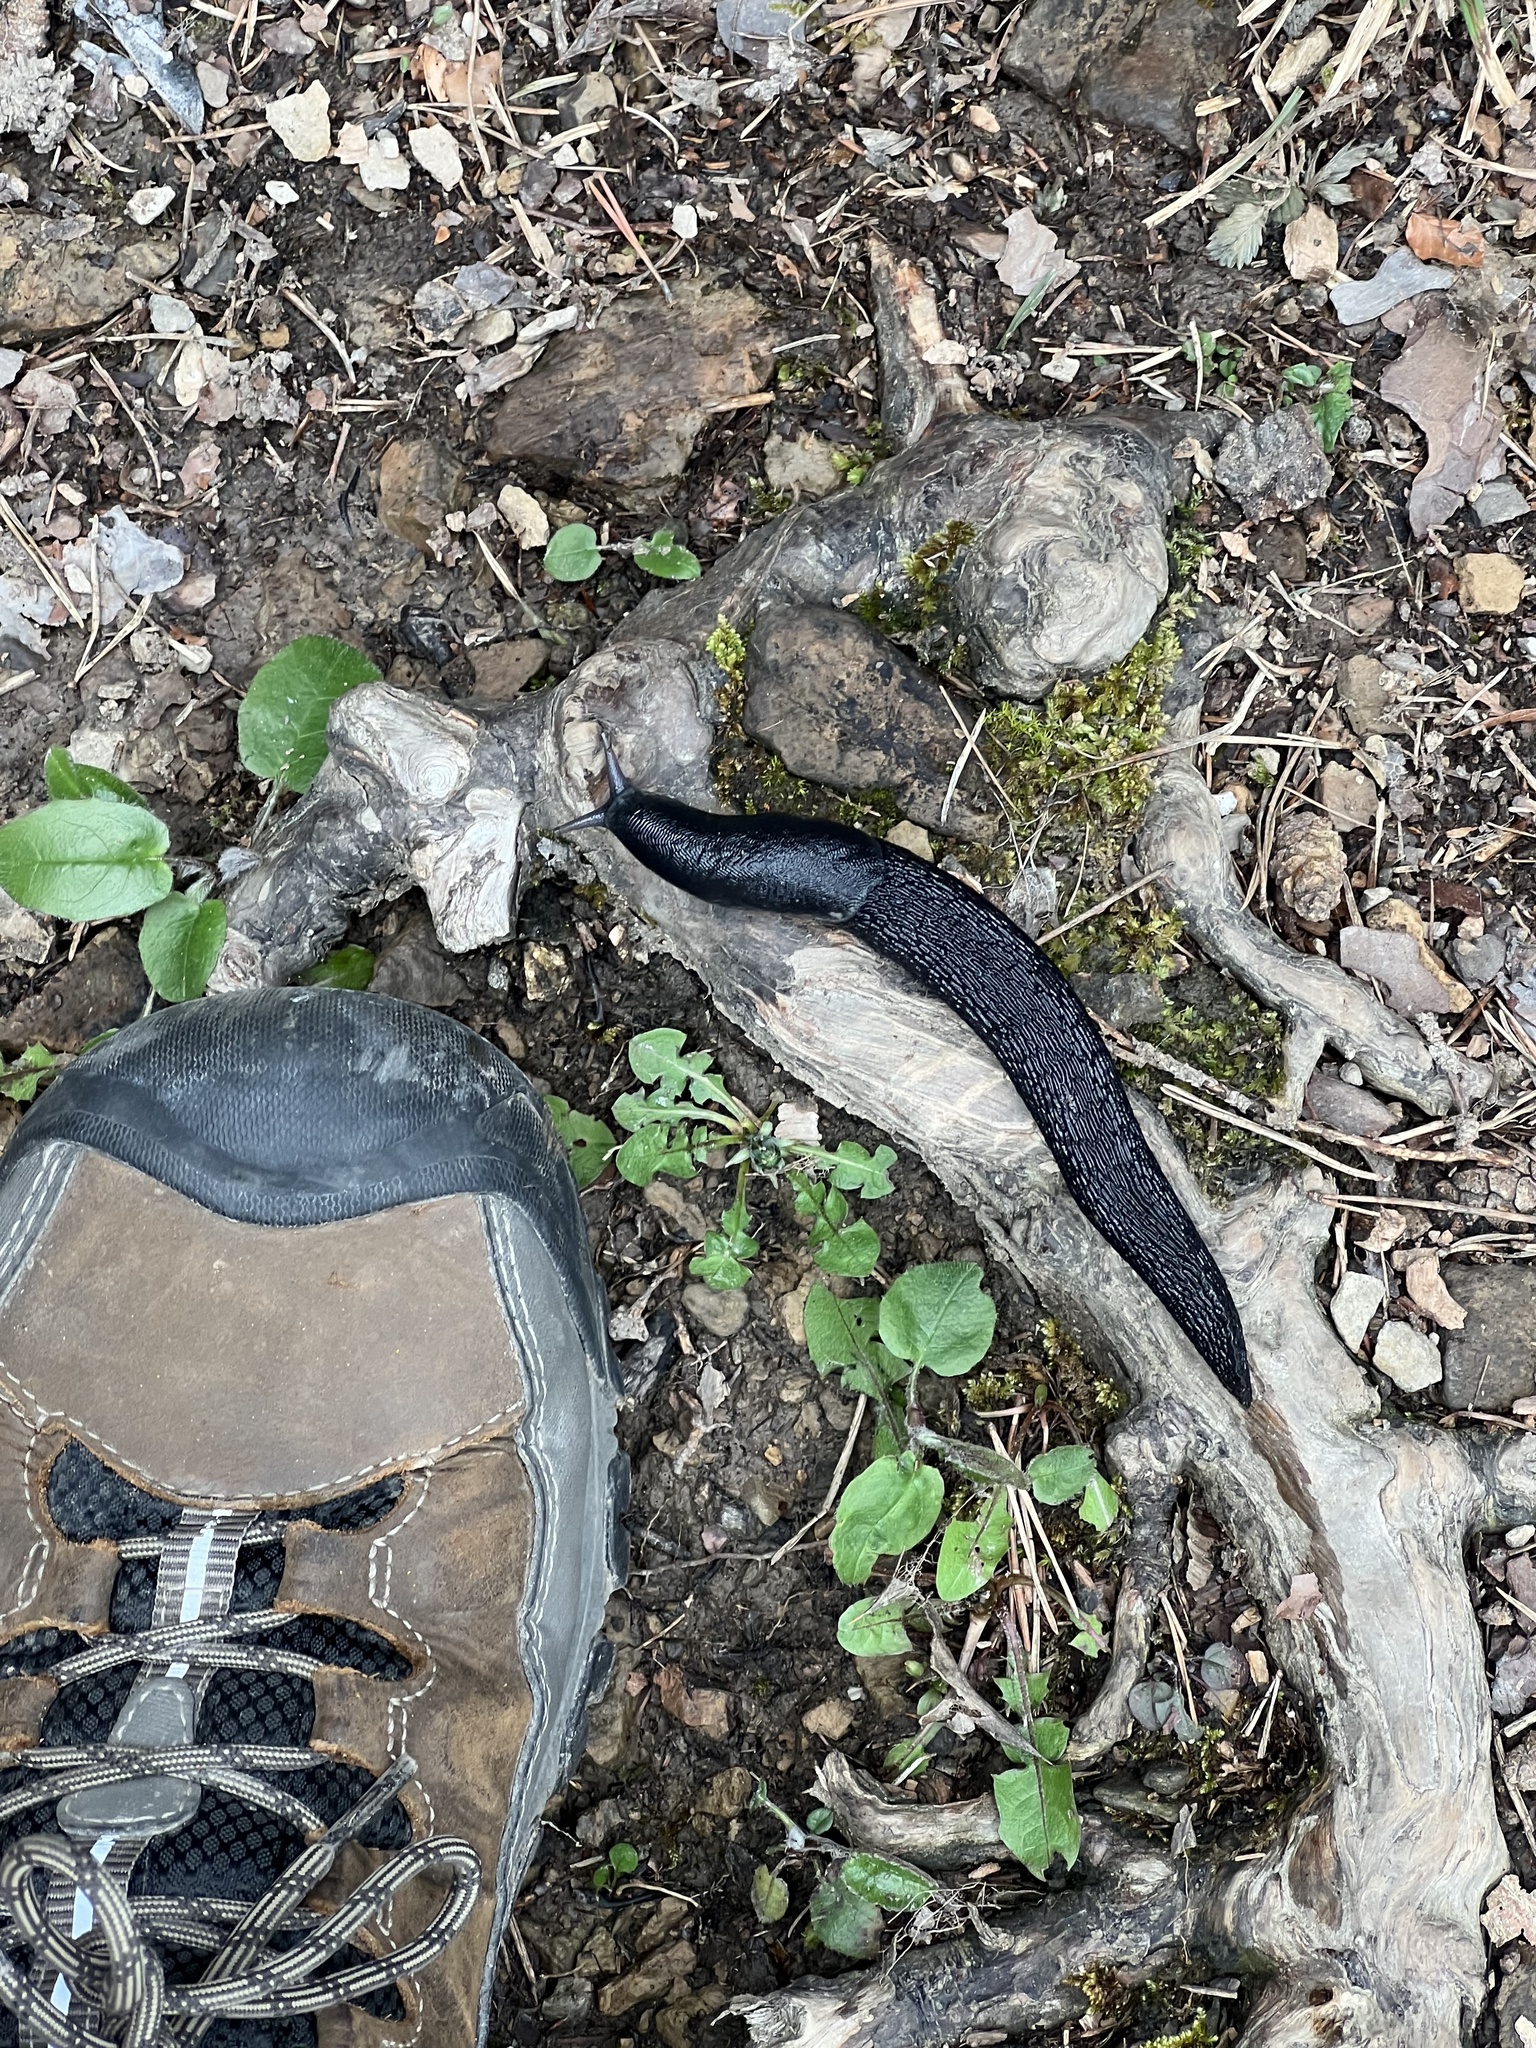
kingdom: Animalia
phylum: Mollusca
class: Gastropoda
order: Stylommatophora
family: Limacidae
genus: Limax
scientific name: Limax cinereoniger
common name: Ash-black slug
